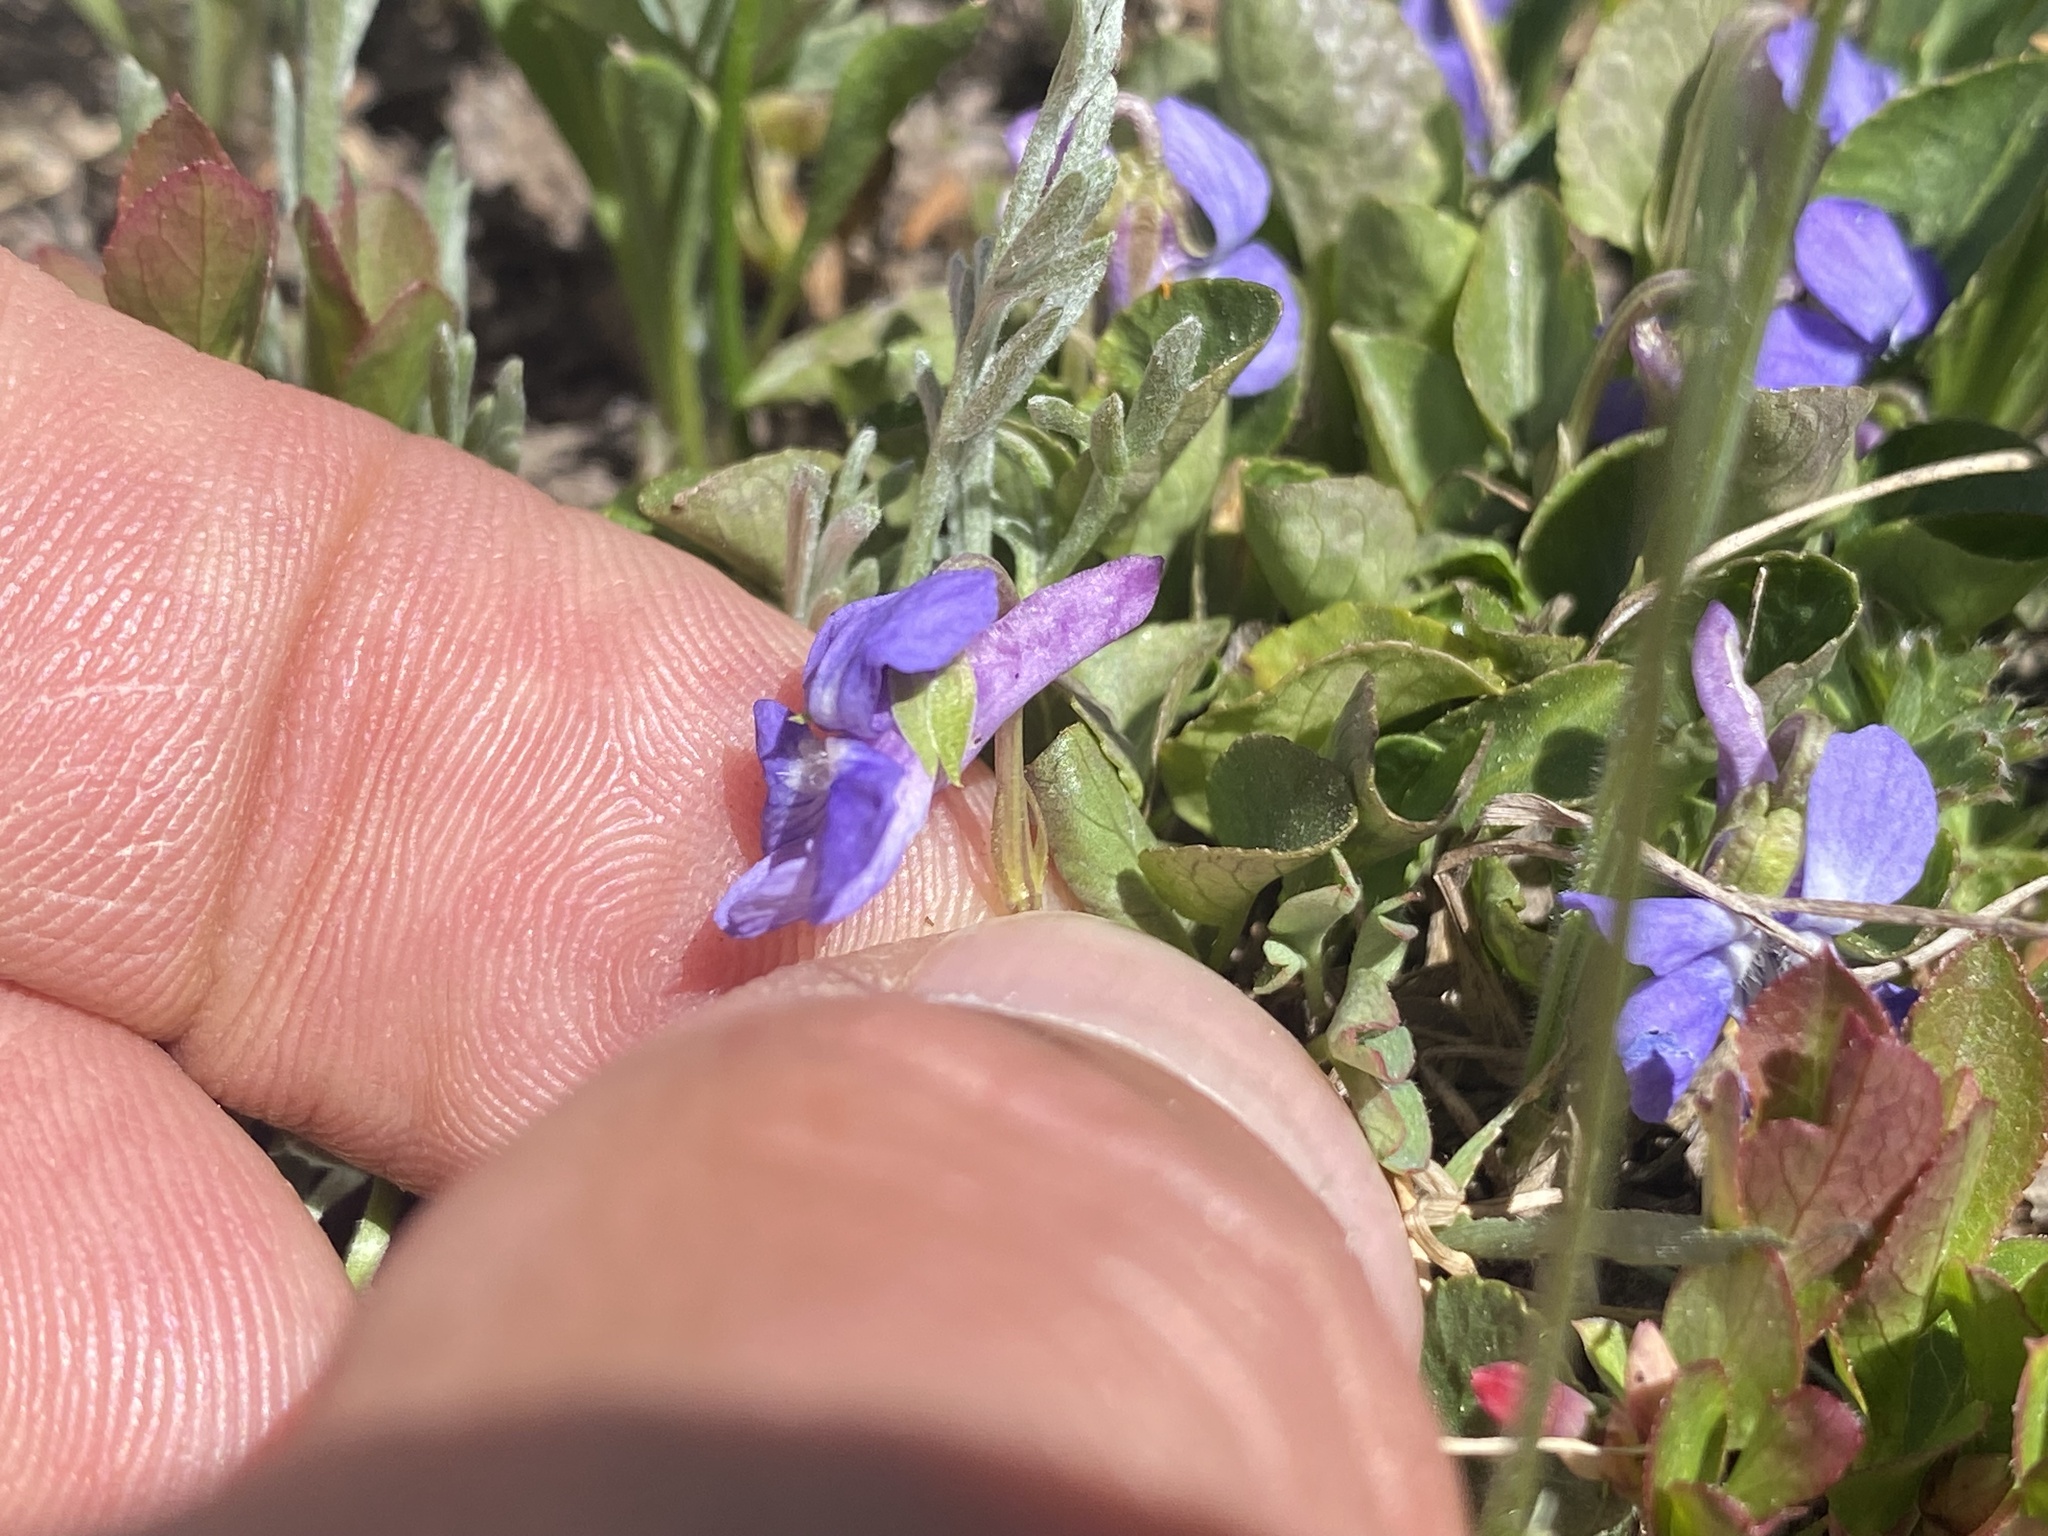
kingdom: Plantae
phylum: Tracheophyta
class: Magnoliopsida
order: Malpighiales
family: Violaceae
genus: Viola
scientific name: Viola adunca
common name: Sand violet
